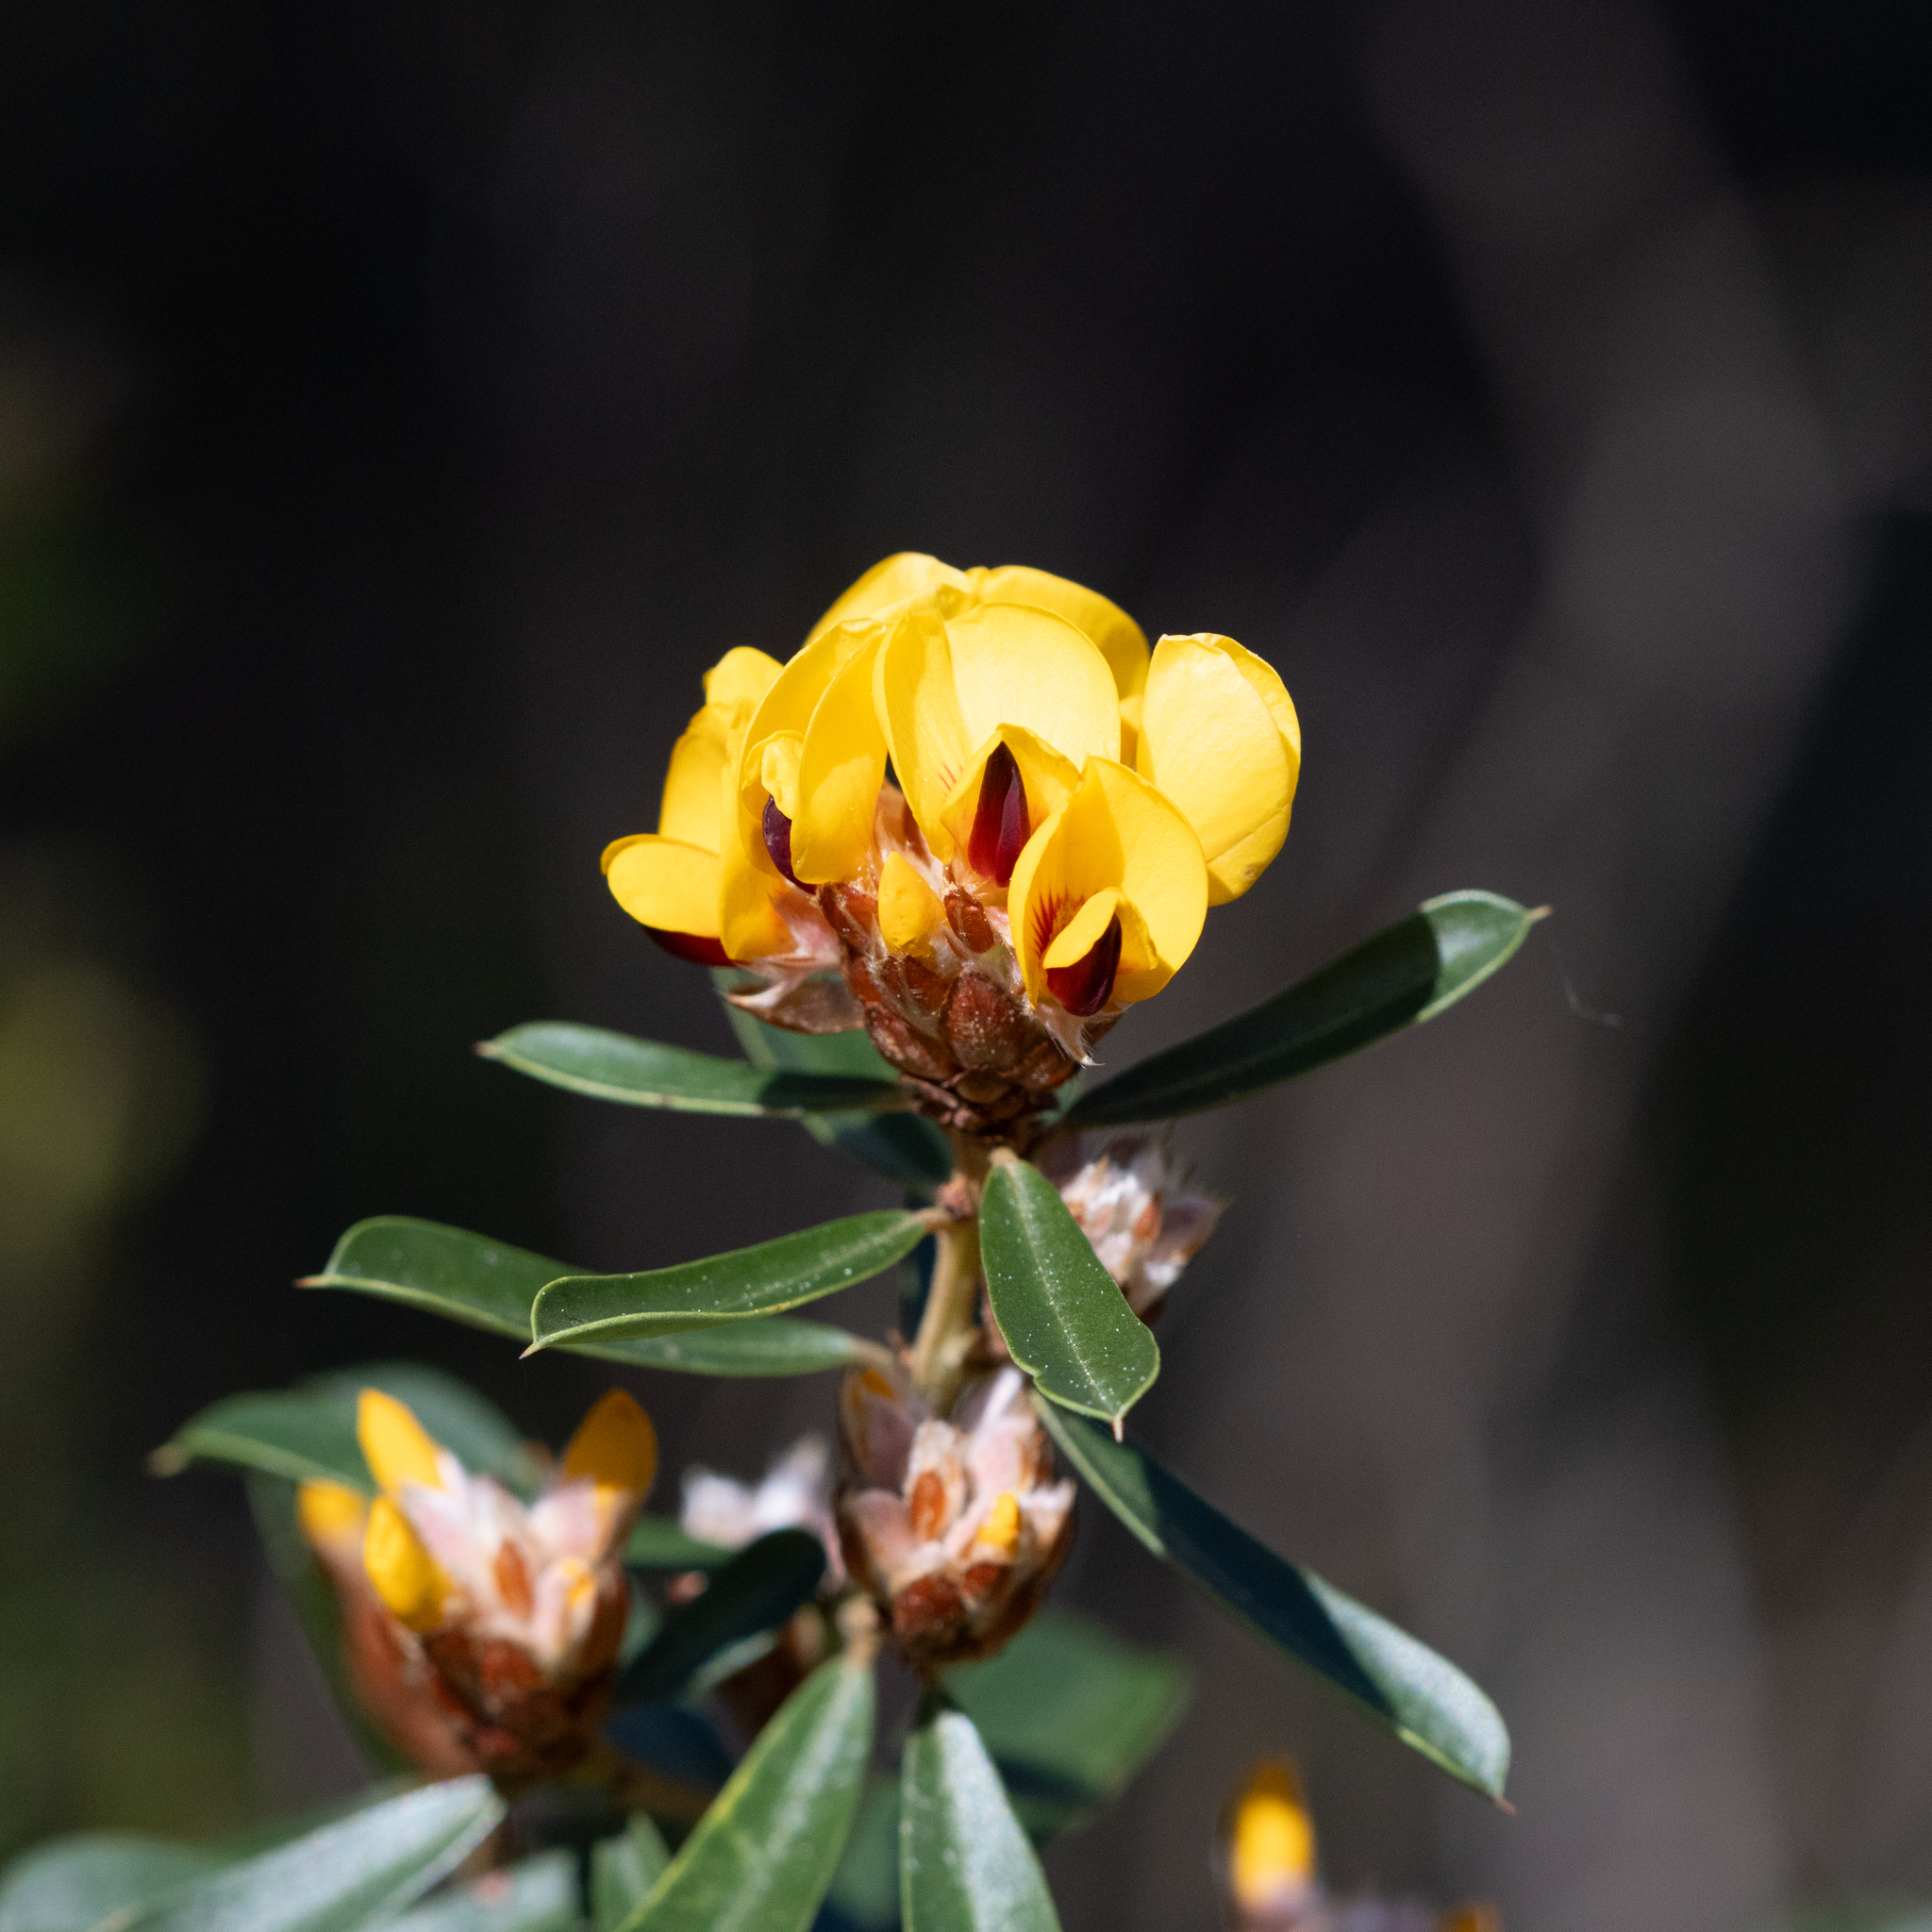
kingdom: Plantae
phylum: Tracheophyta
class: Magnoliopsida
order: Fabales
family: Fabaceae
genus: Pultenaea
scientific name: Pultenaea daphnoides
